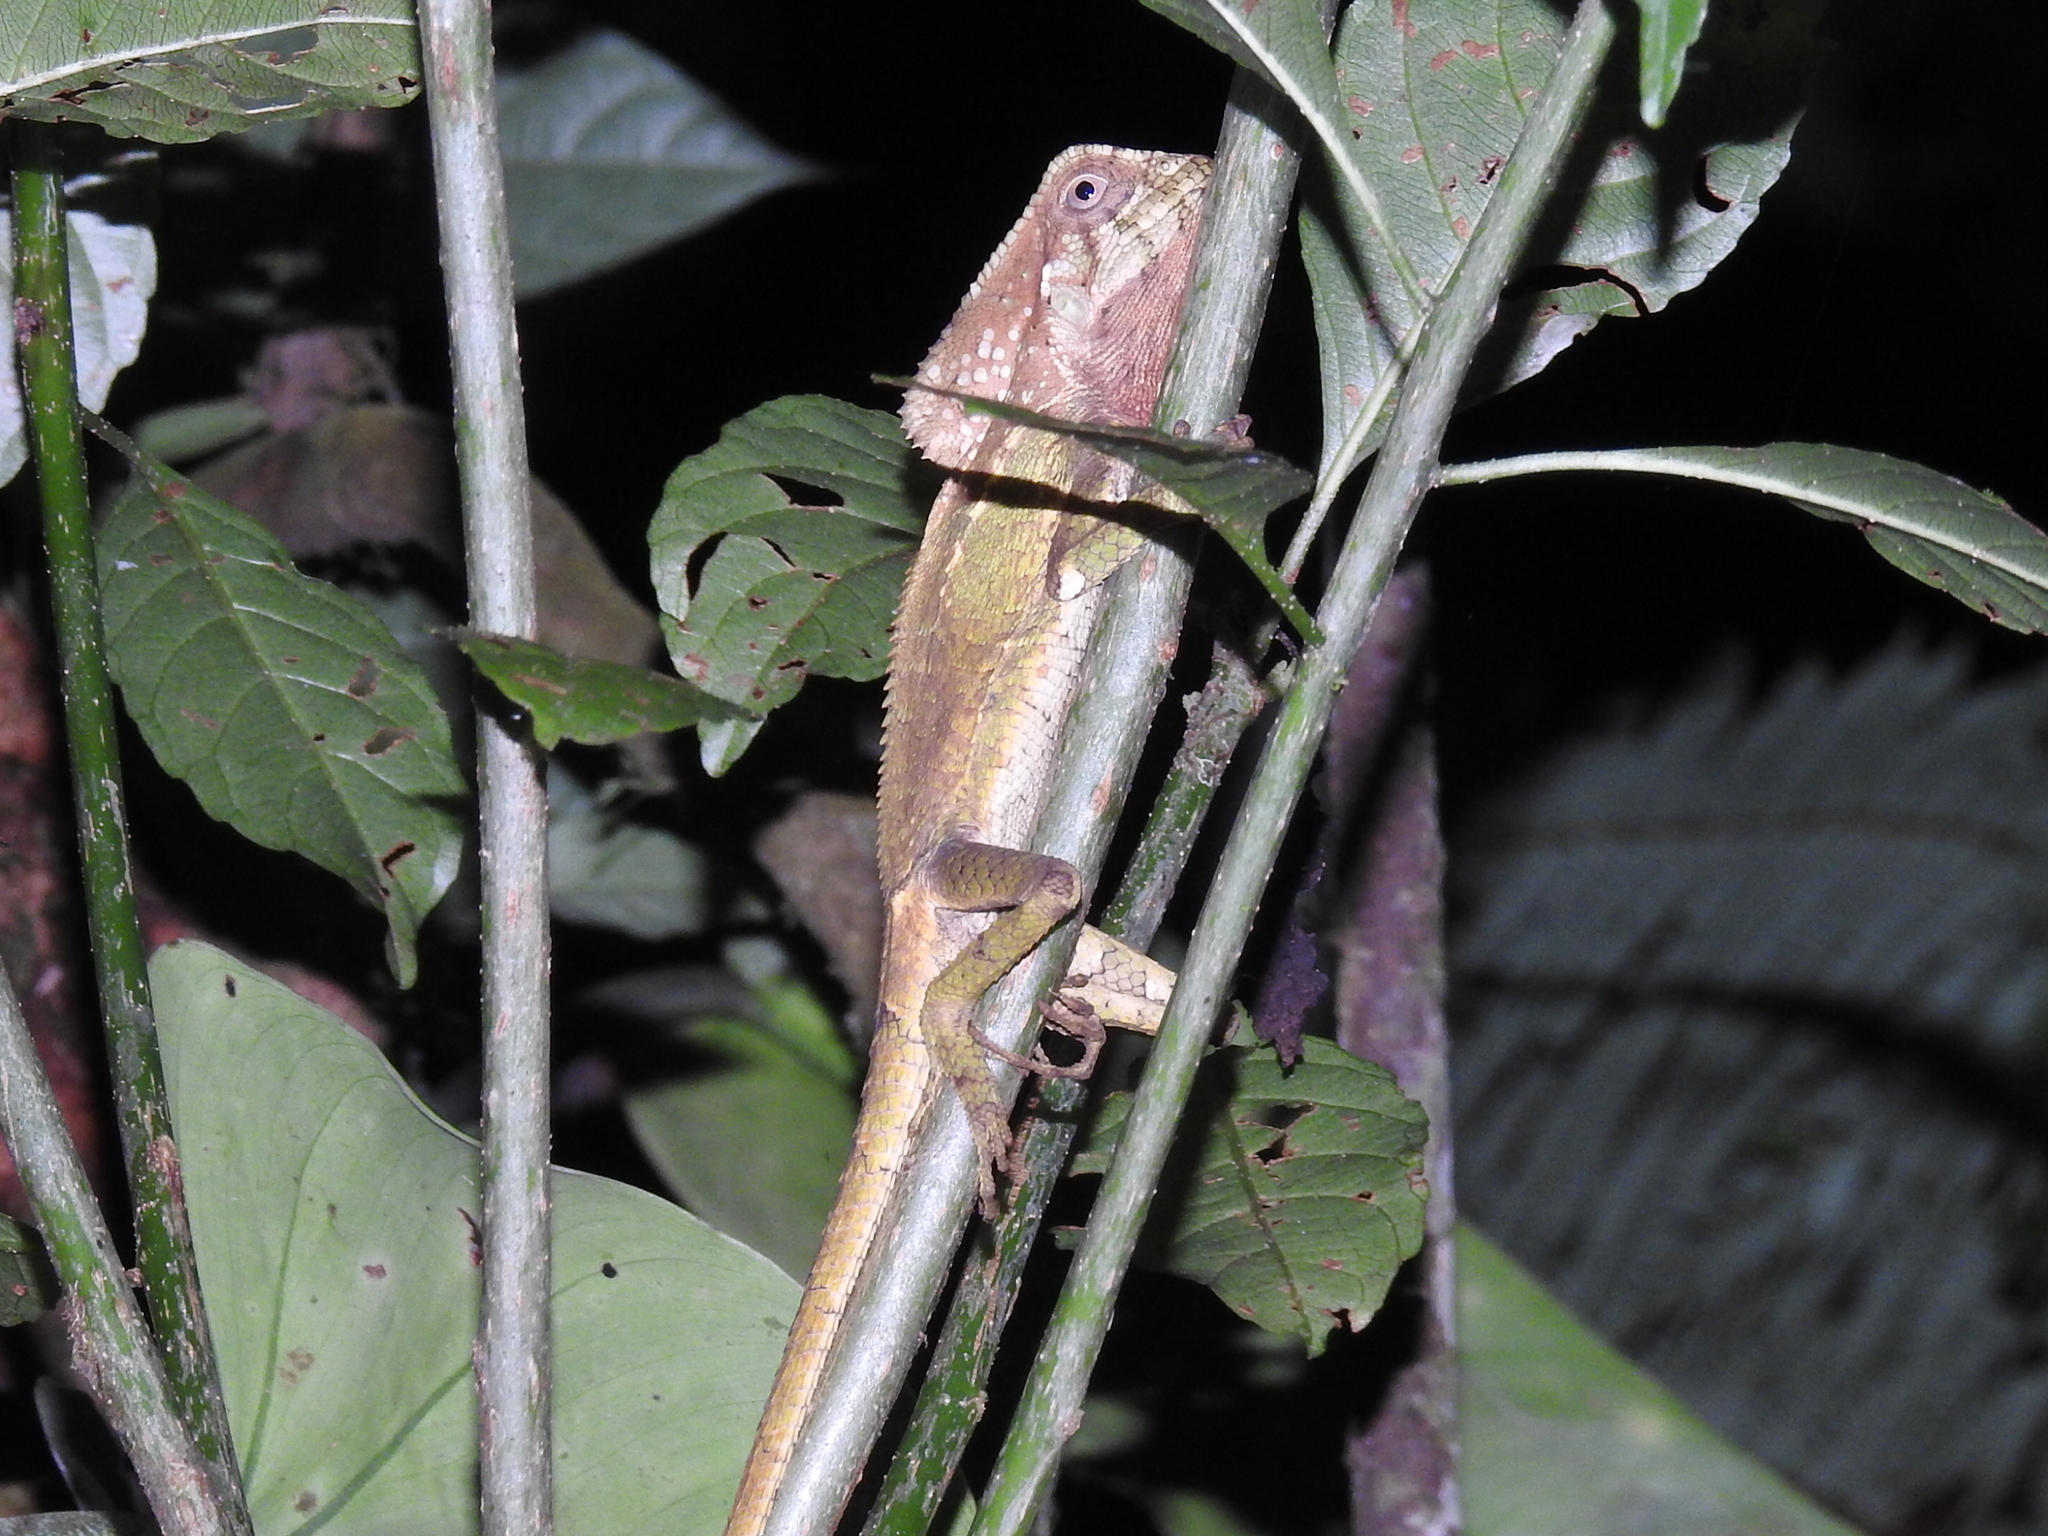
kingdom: Animalia
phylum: Chordata
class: Squamata
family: Corytophanidae
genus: Corytophanes
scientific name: Corytophanes cristatus
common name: Smooth helmeted iguana
